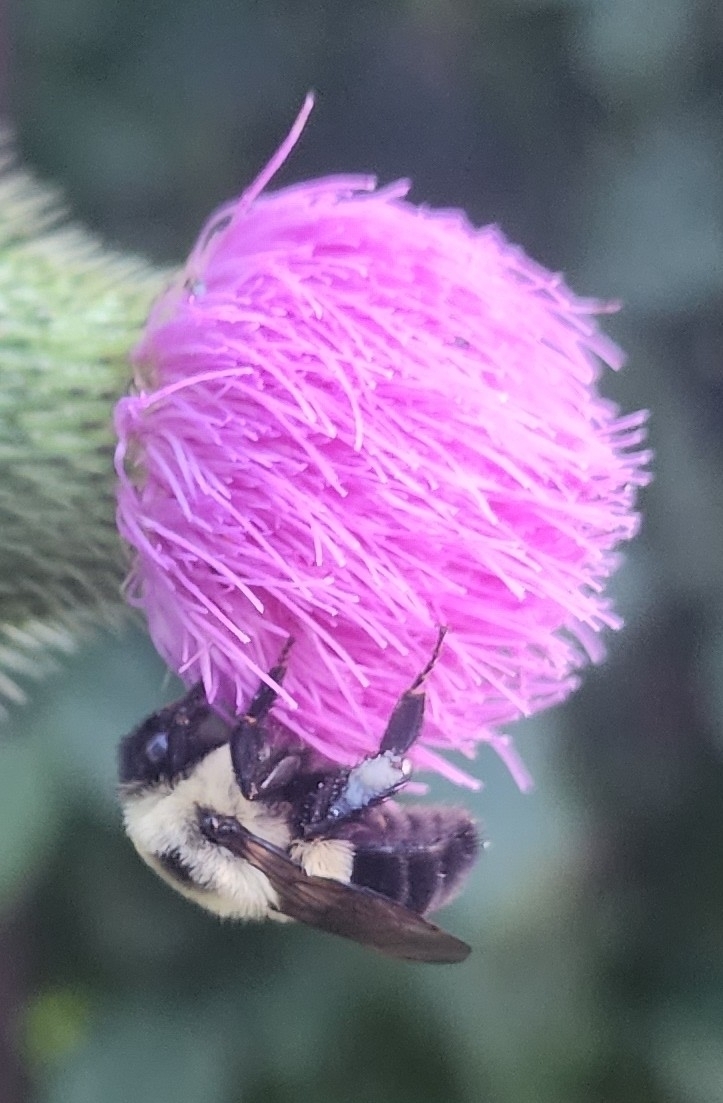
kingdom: Animalia
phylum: Arthropoda
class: Insecta
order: Hymenoptera
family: Apidae
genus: Bombus
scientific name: Bombus impatiens
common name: Common eastern bumble bee
